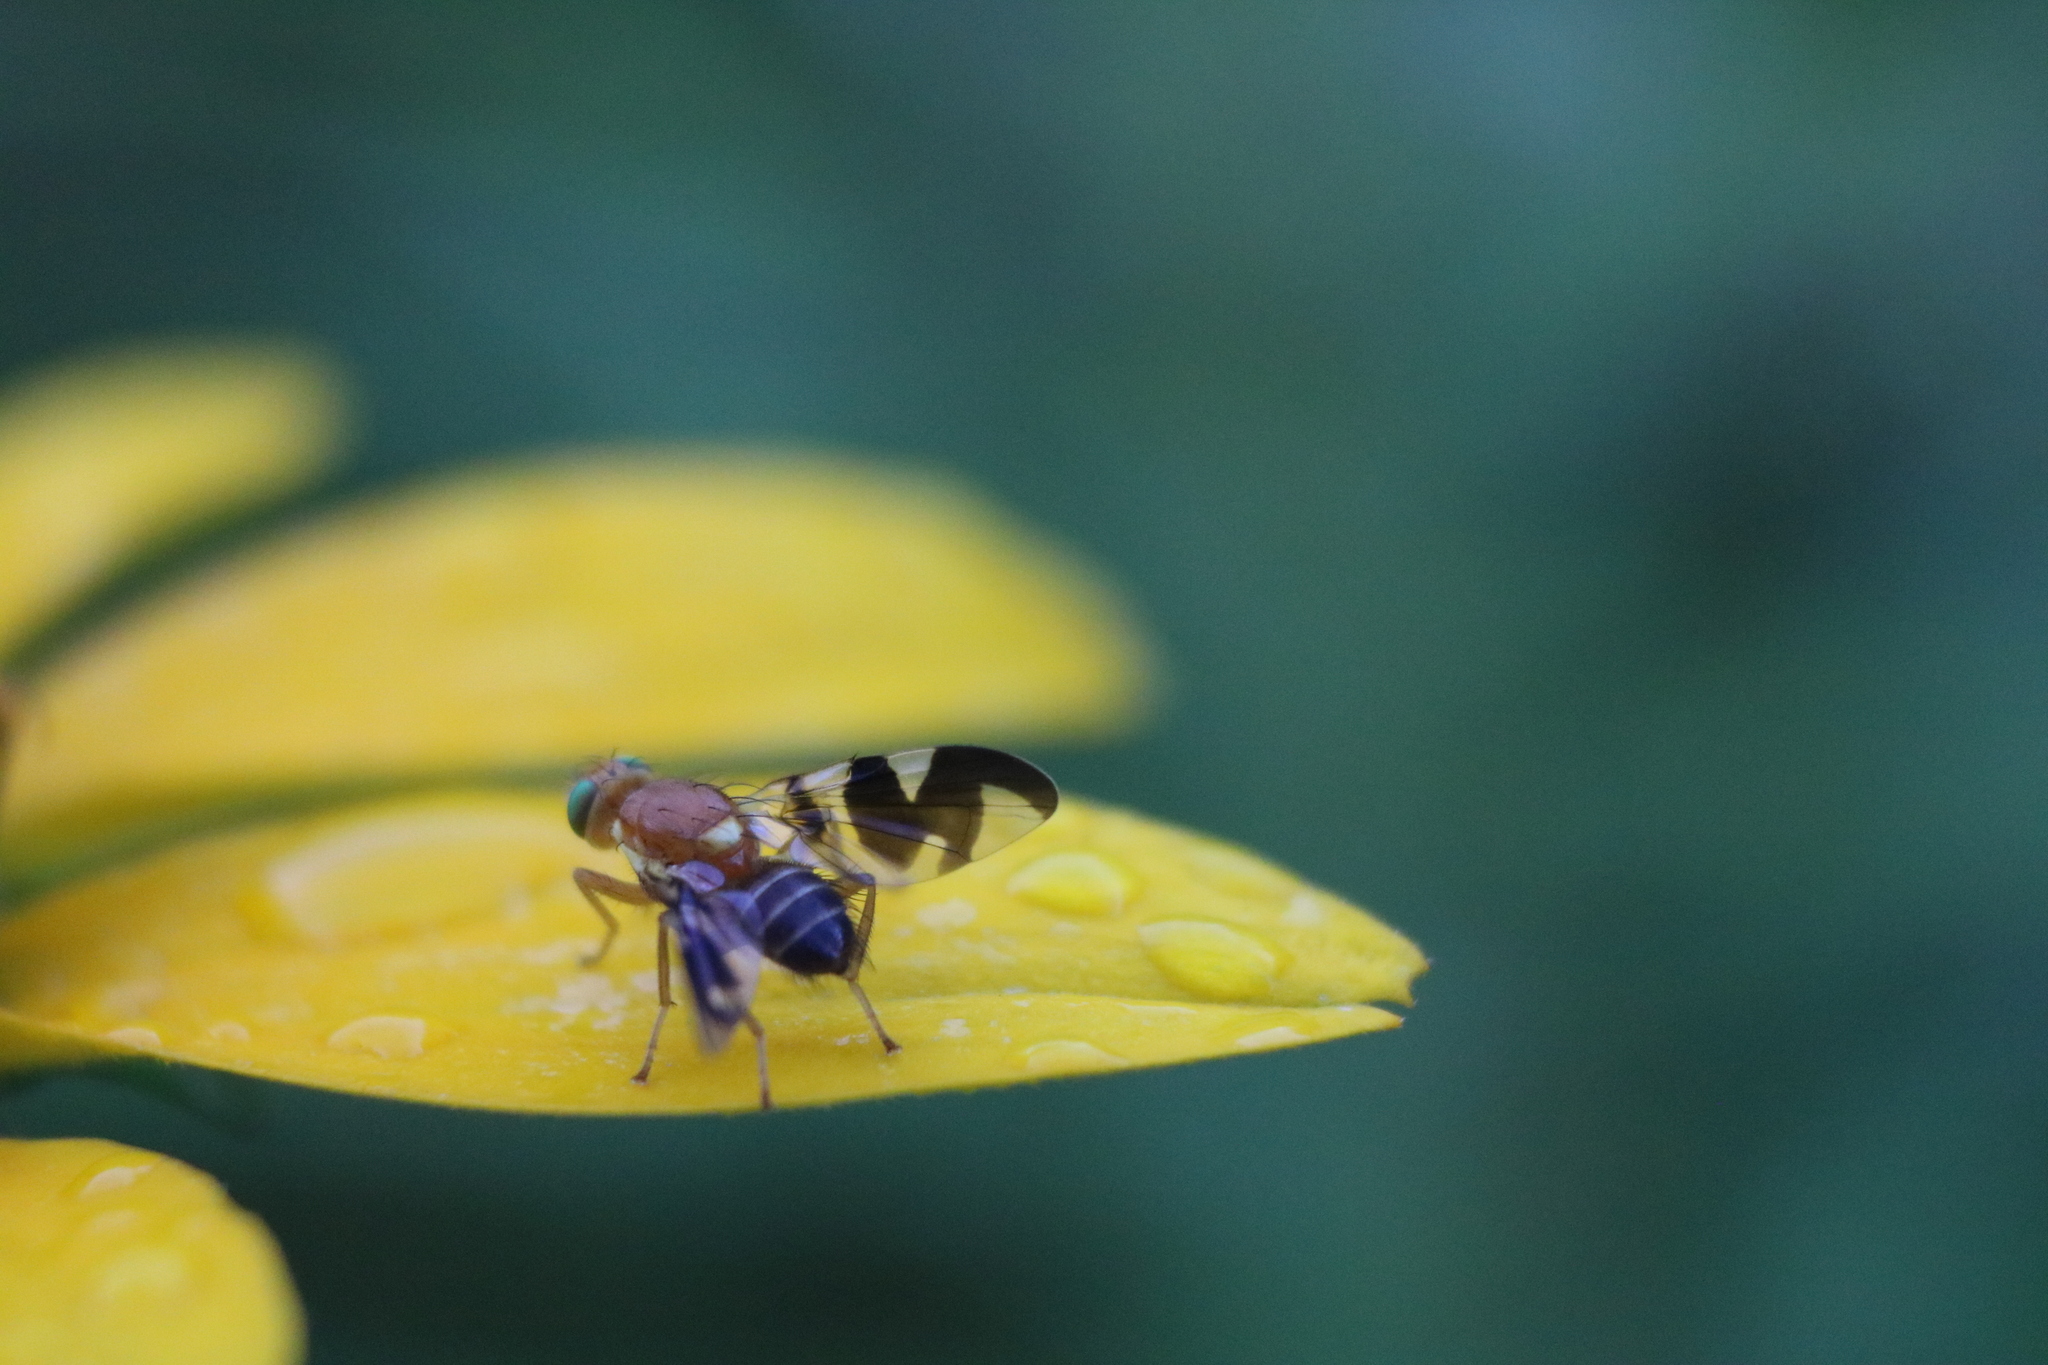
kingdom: Animalia
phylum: Arthropoda
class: Insecta
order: Diptera
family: Tephritidae
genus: Rhagoletis
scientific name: Rhagoletis suavis
